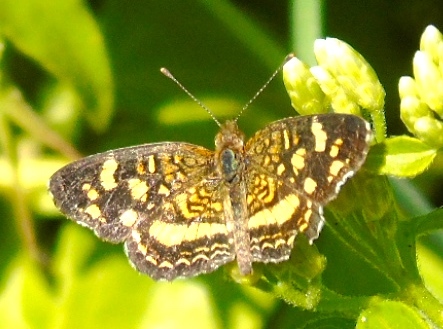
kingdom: Animalia
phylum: Arthropoda
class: Insecta
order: Lepidoptera
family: Nymphalidae
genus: Anthanassa
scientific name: Anthanassa tulcis
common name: Pale-banded crescent
